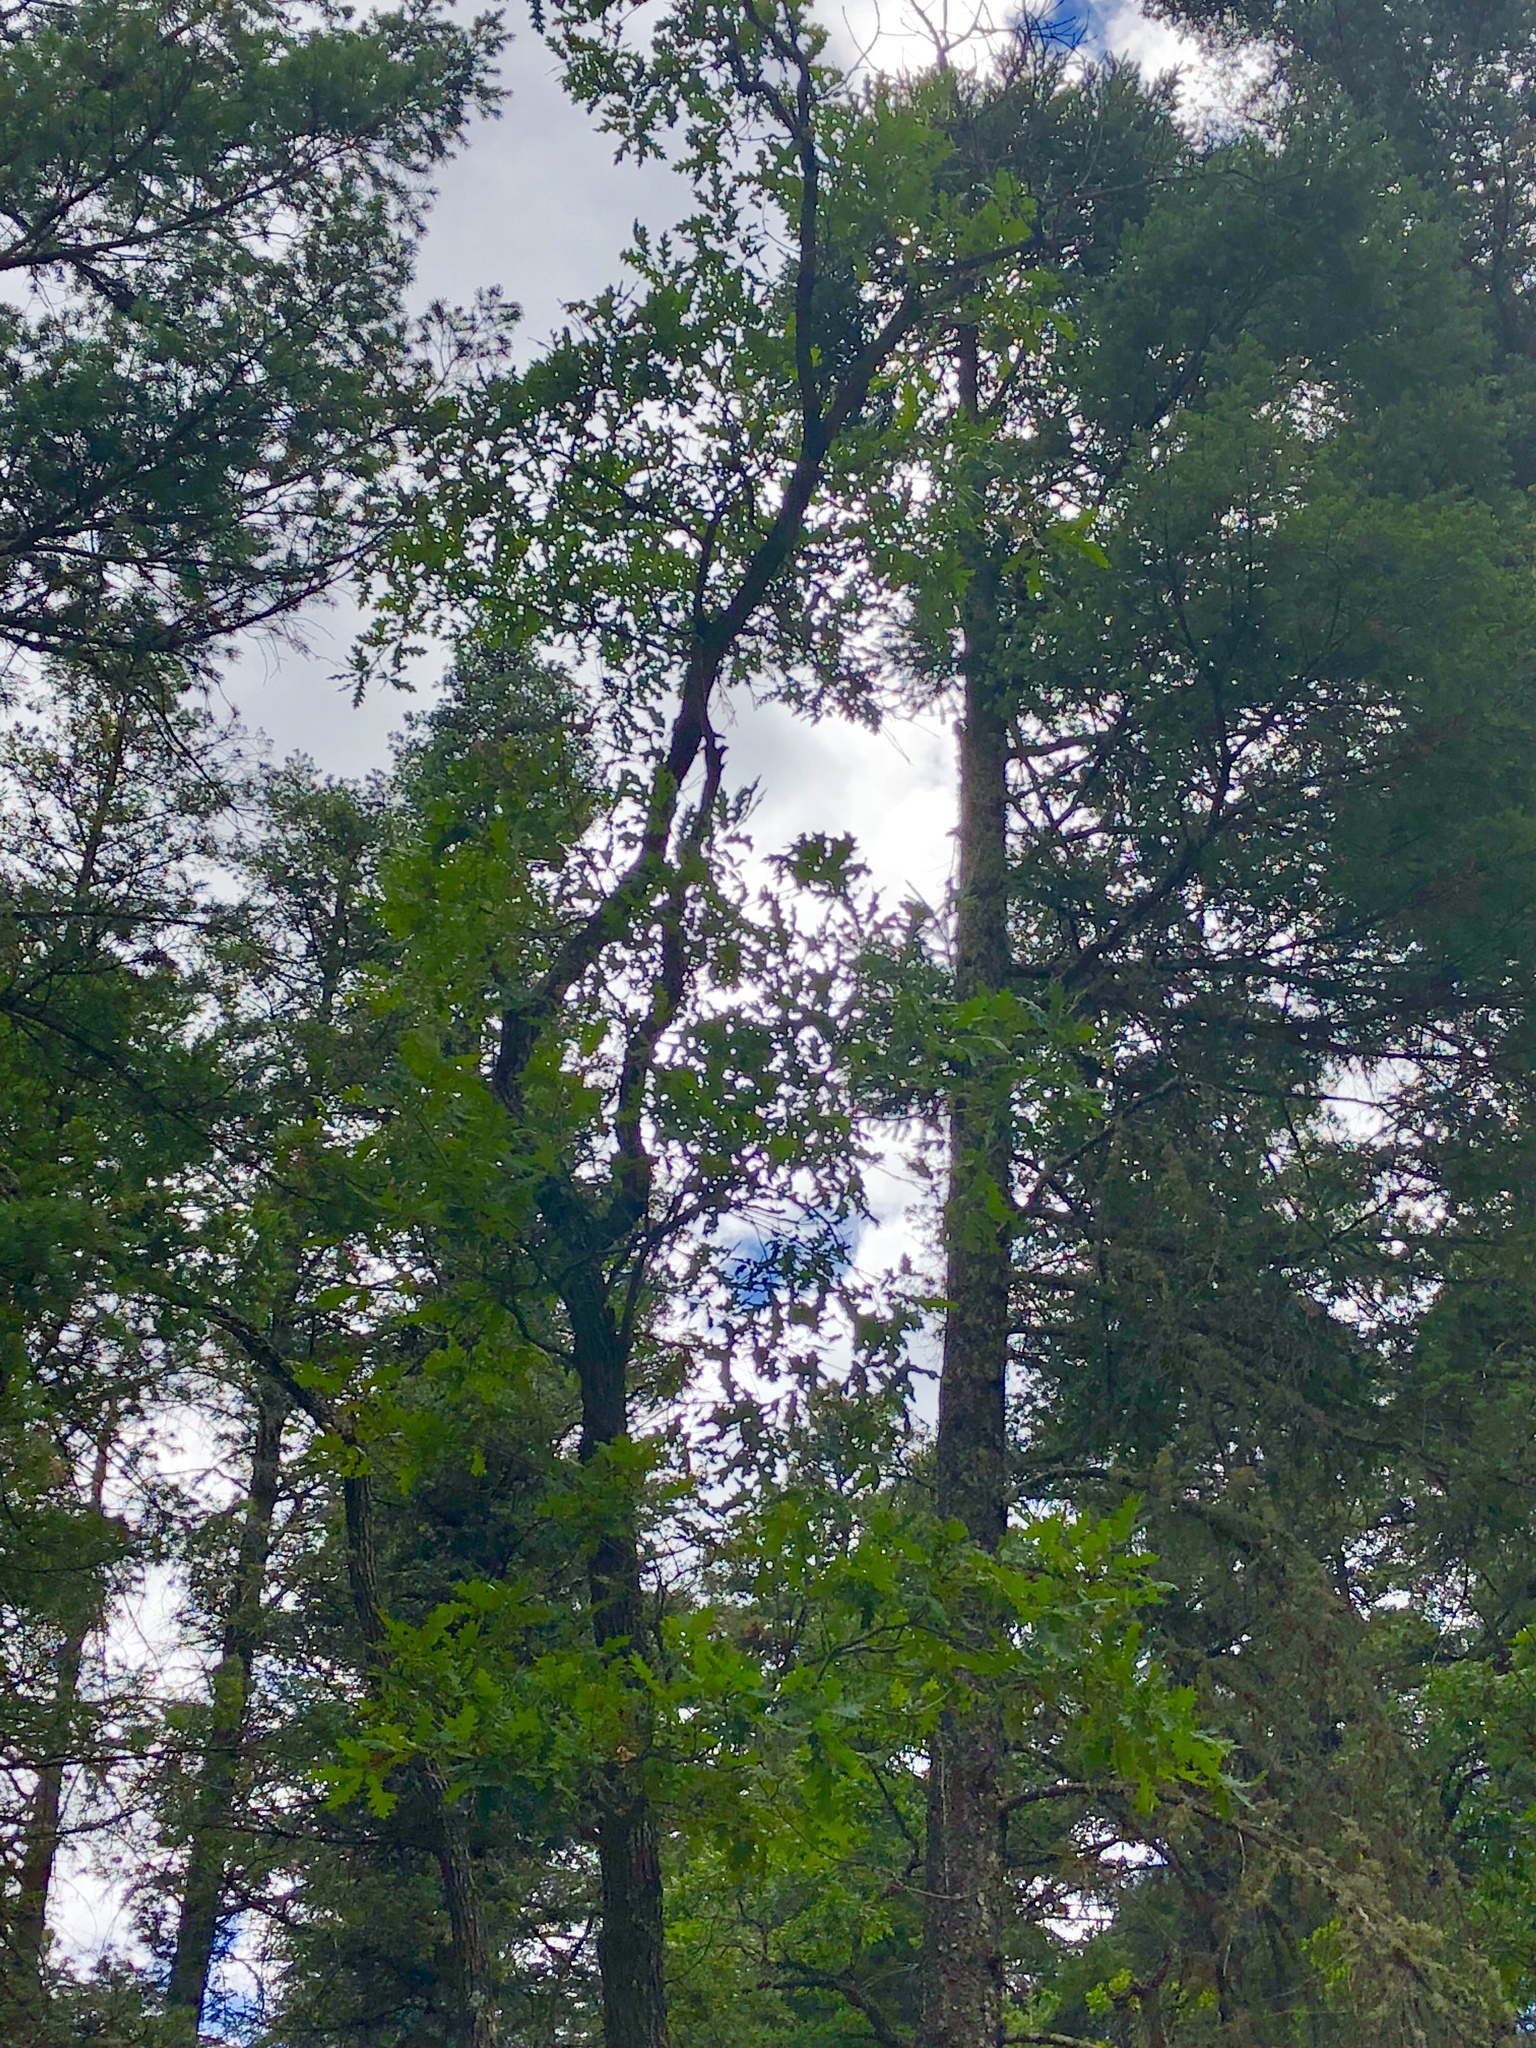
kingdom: Plantae
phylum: Tracheophyta
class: Magnoliopsida
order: Fagales
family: Fagaceae
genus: Quercus
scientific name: Quercus gambelii
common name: Gambel oak
